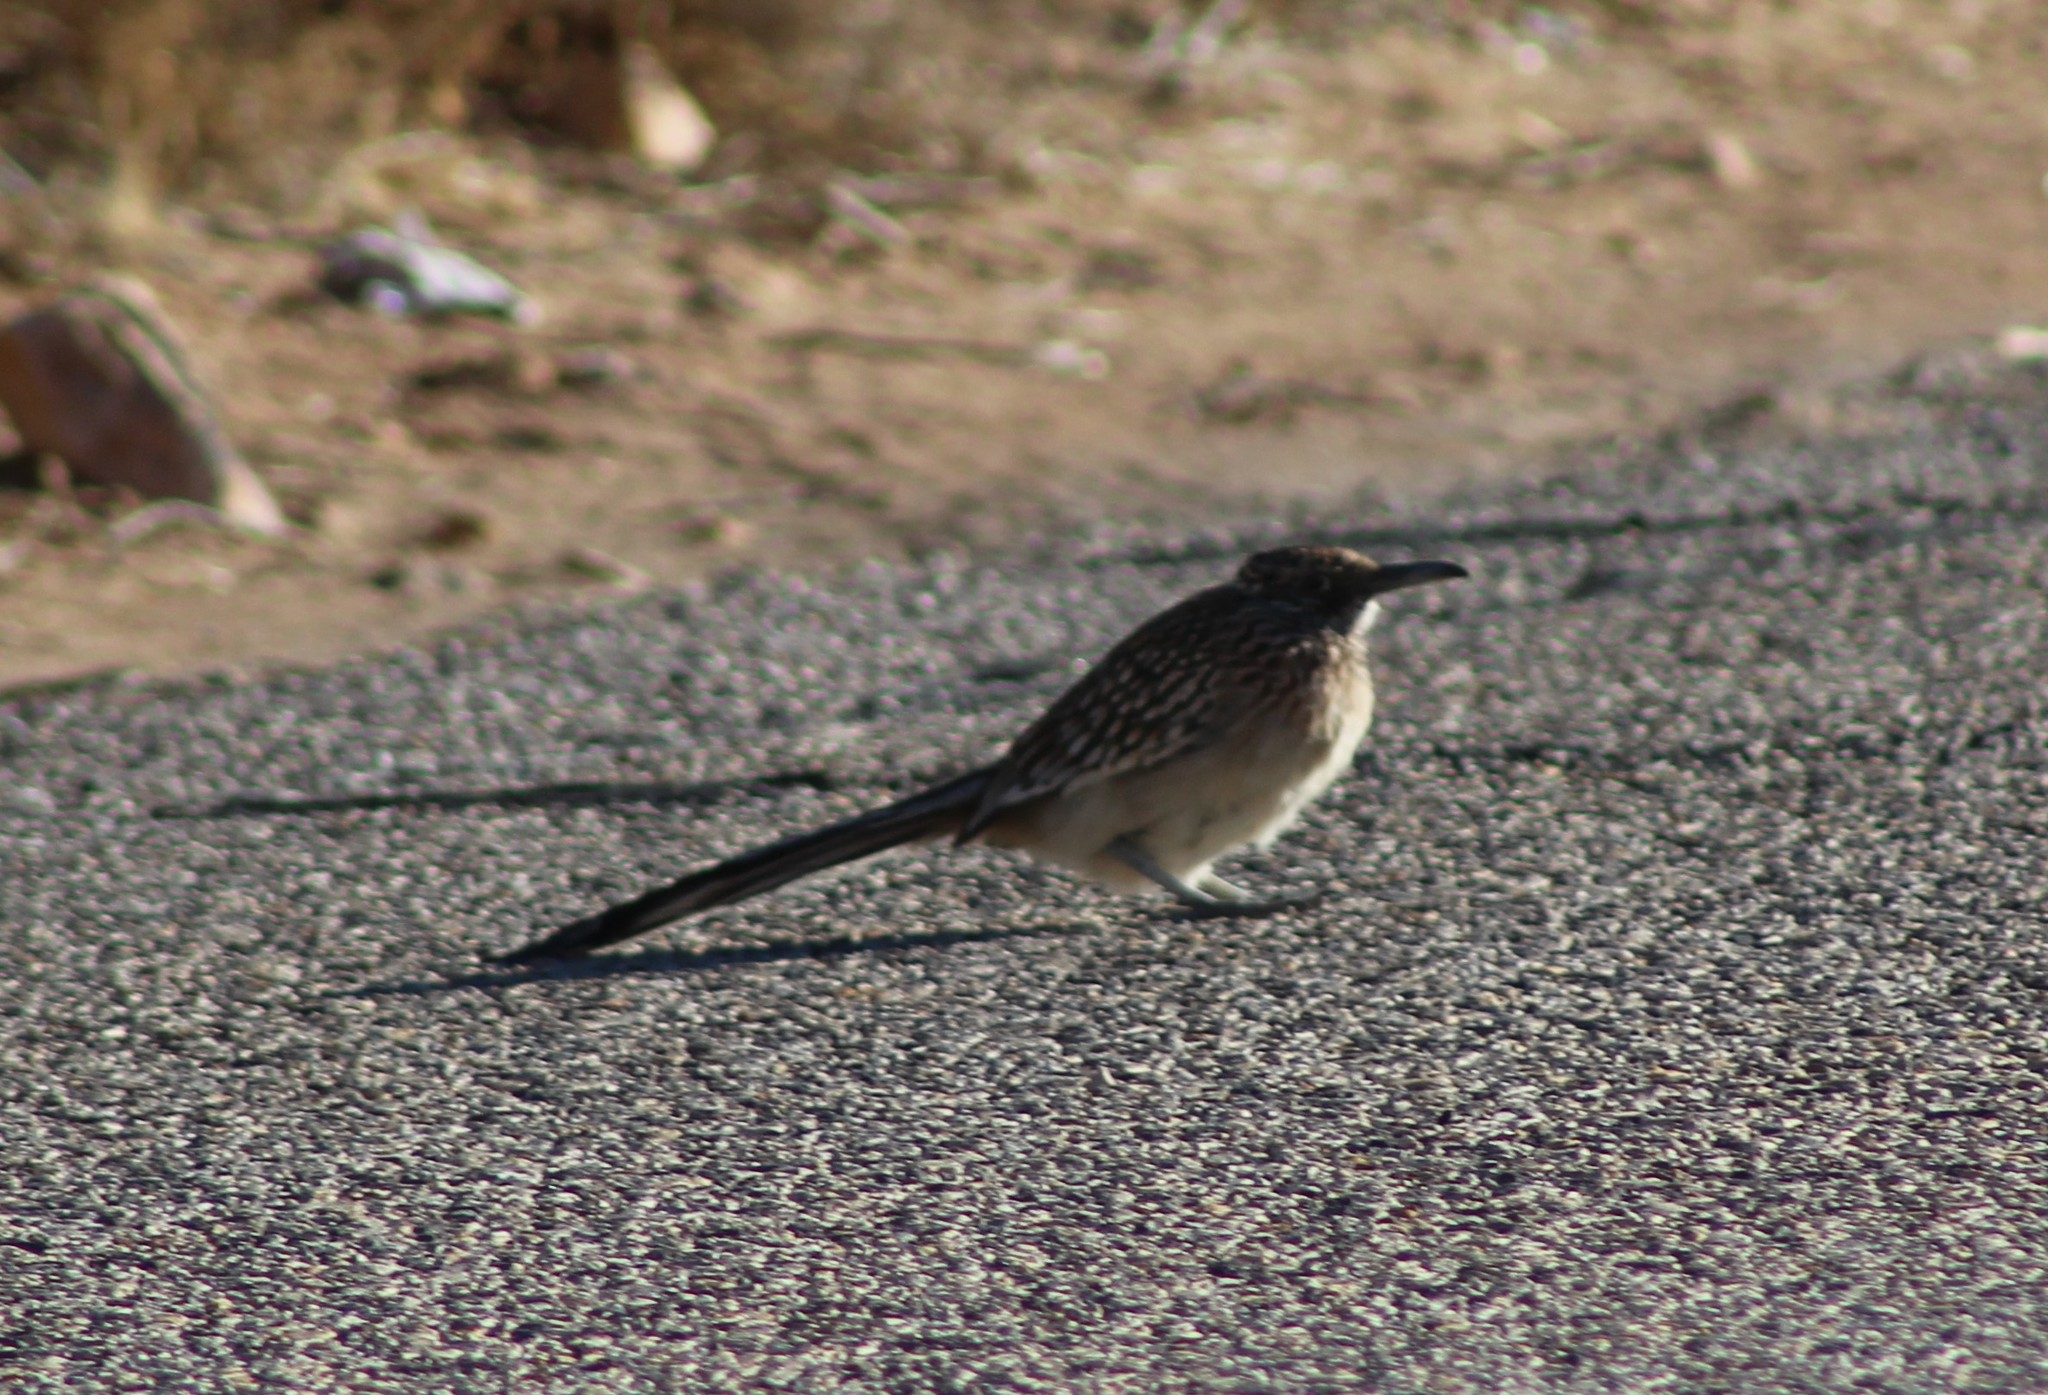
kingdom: Animalia
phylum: Chordata
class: Aves
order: Cuculiformes
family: Cuculidae
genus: Geococcyx
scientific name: Geococcyx californianus
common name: Greater roadrunner
